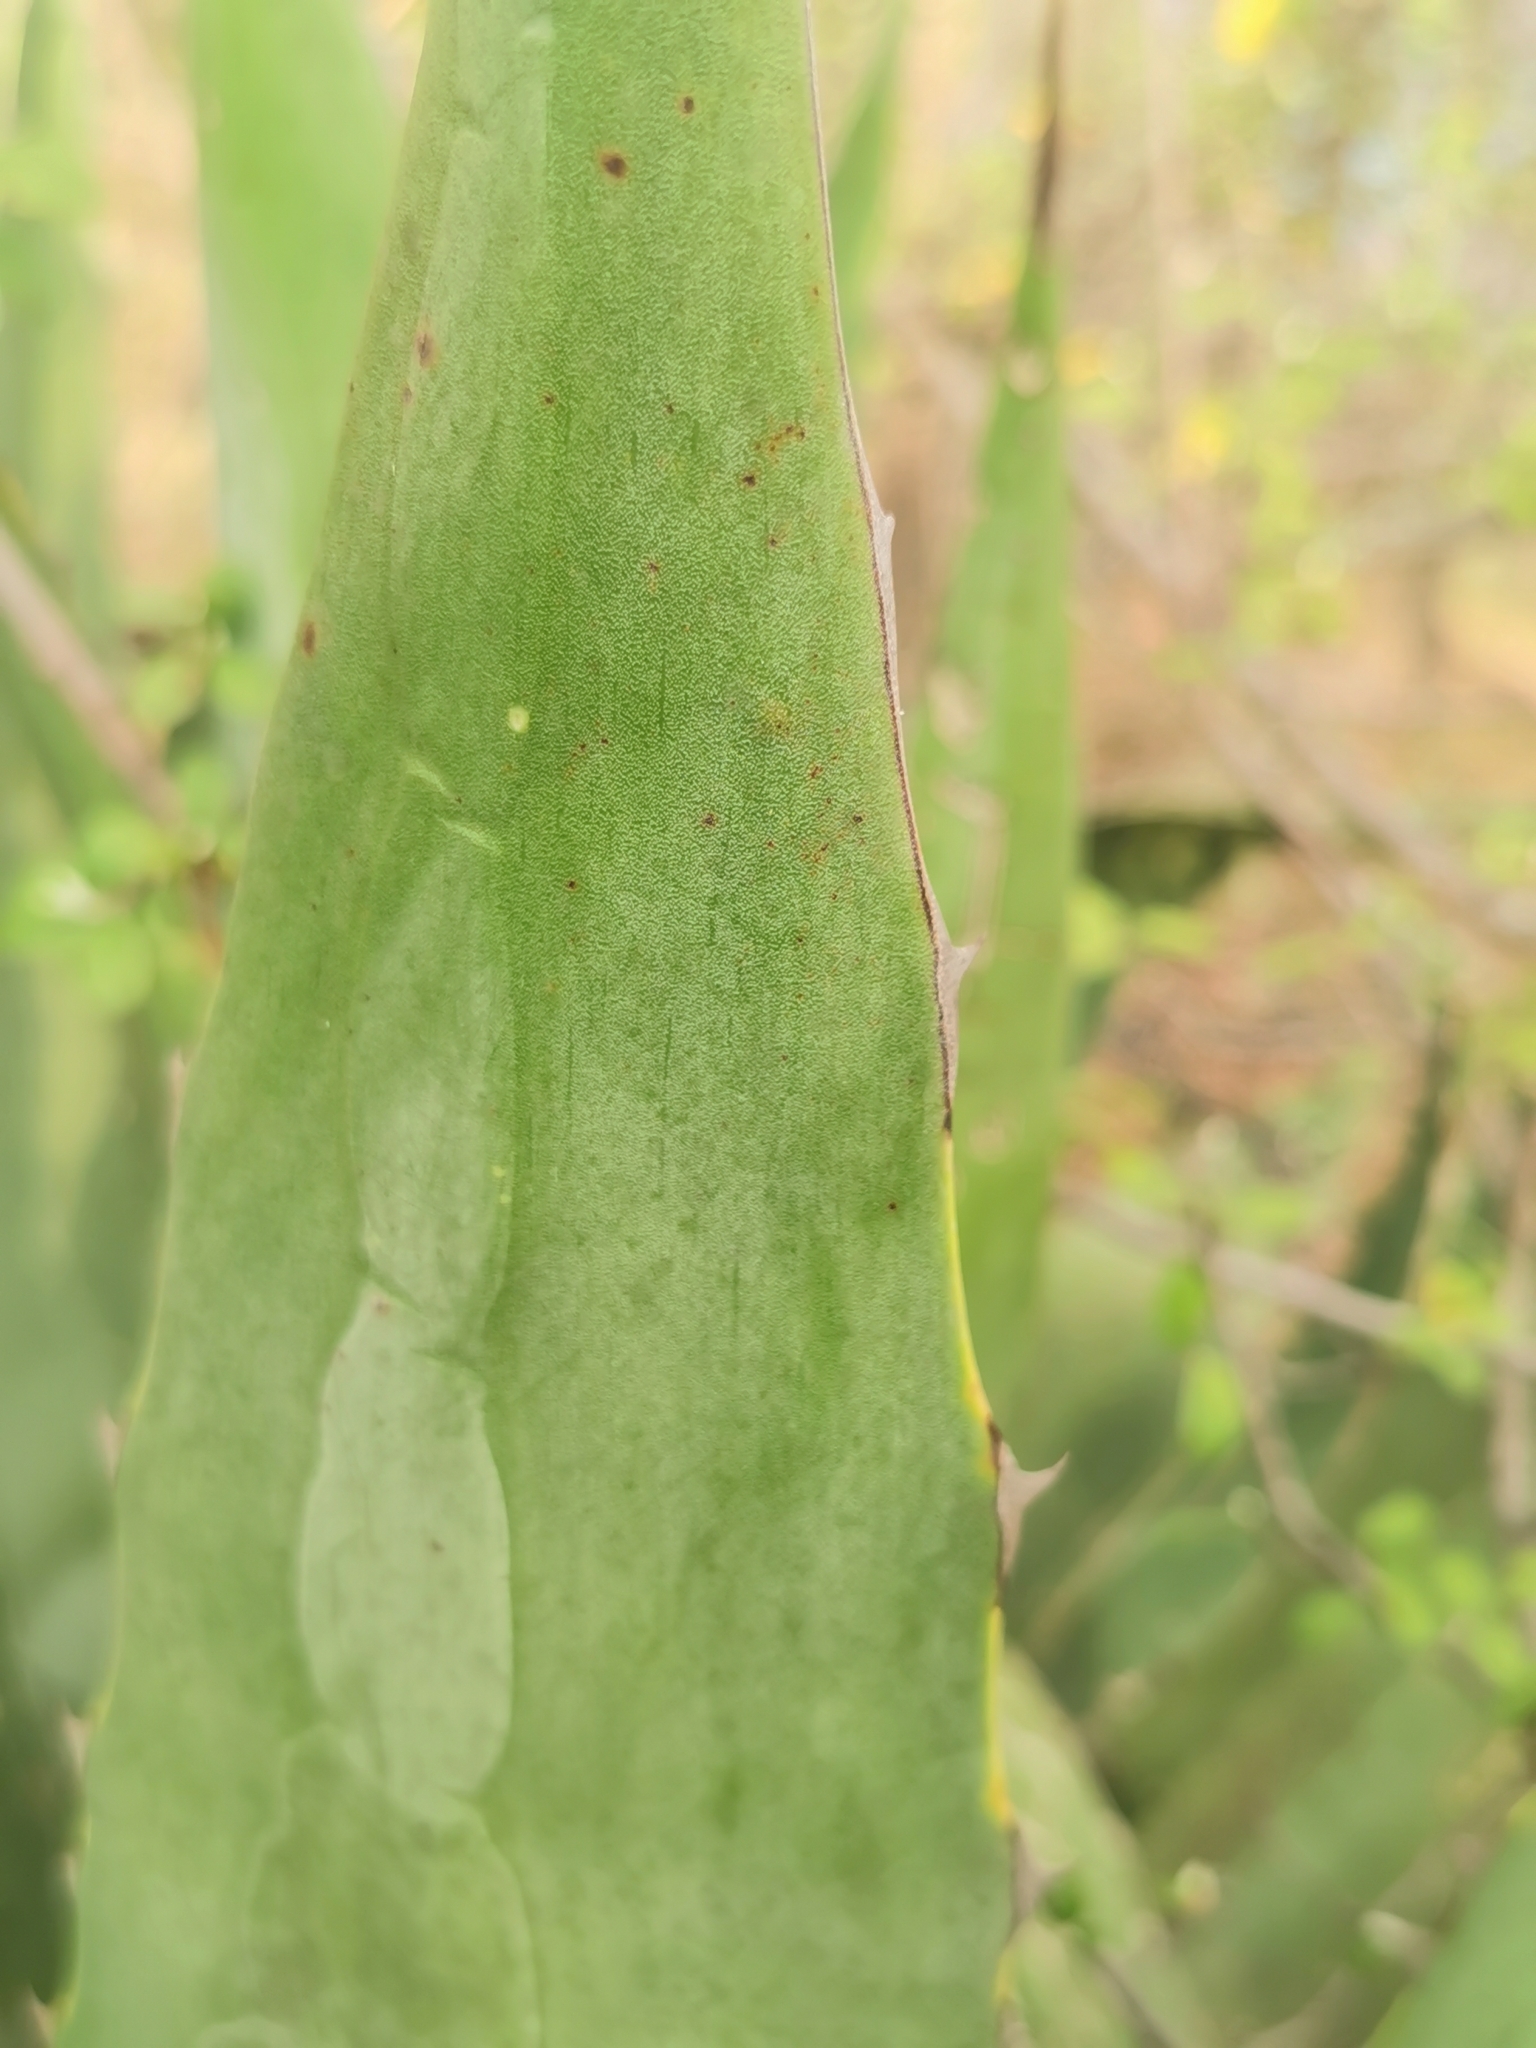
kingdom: Plantae
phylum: Tracheophyta
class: Liliopsida
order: Asparagales
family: Asparagaceae
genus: Agave
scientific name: Agave wocomahi
